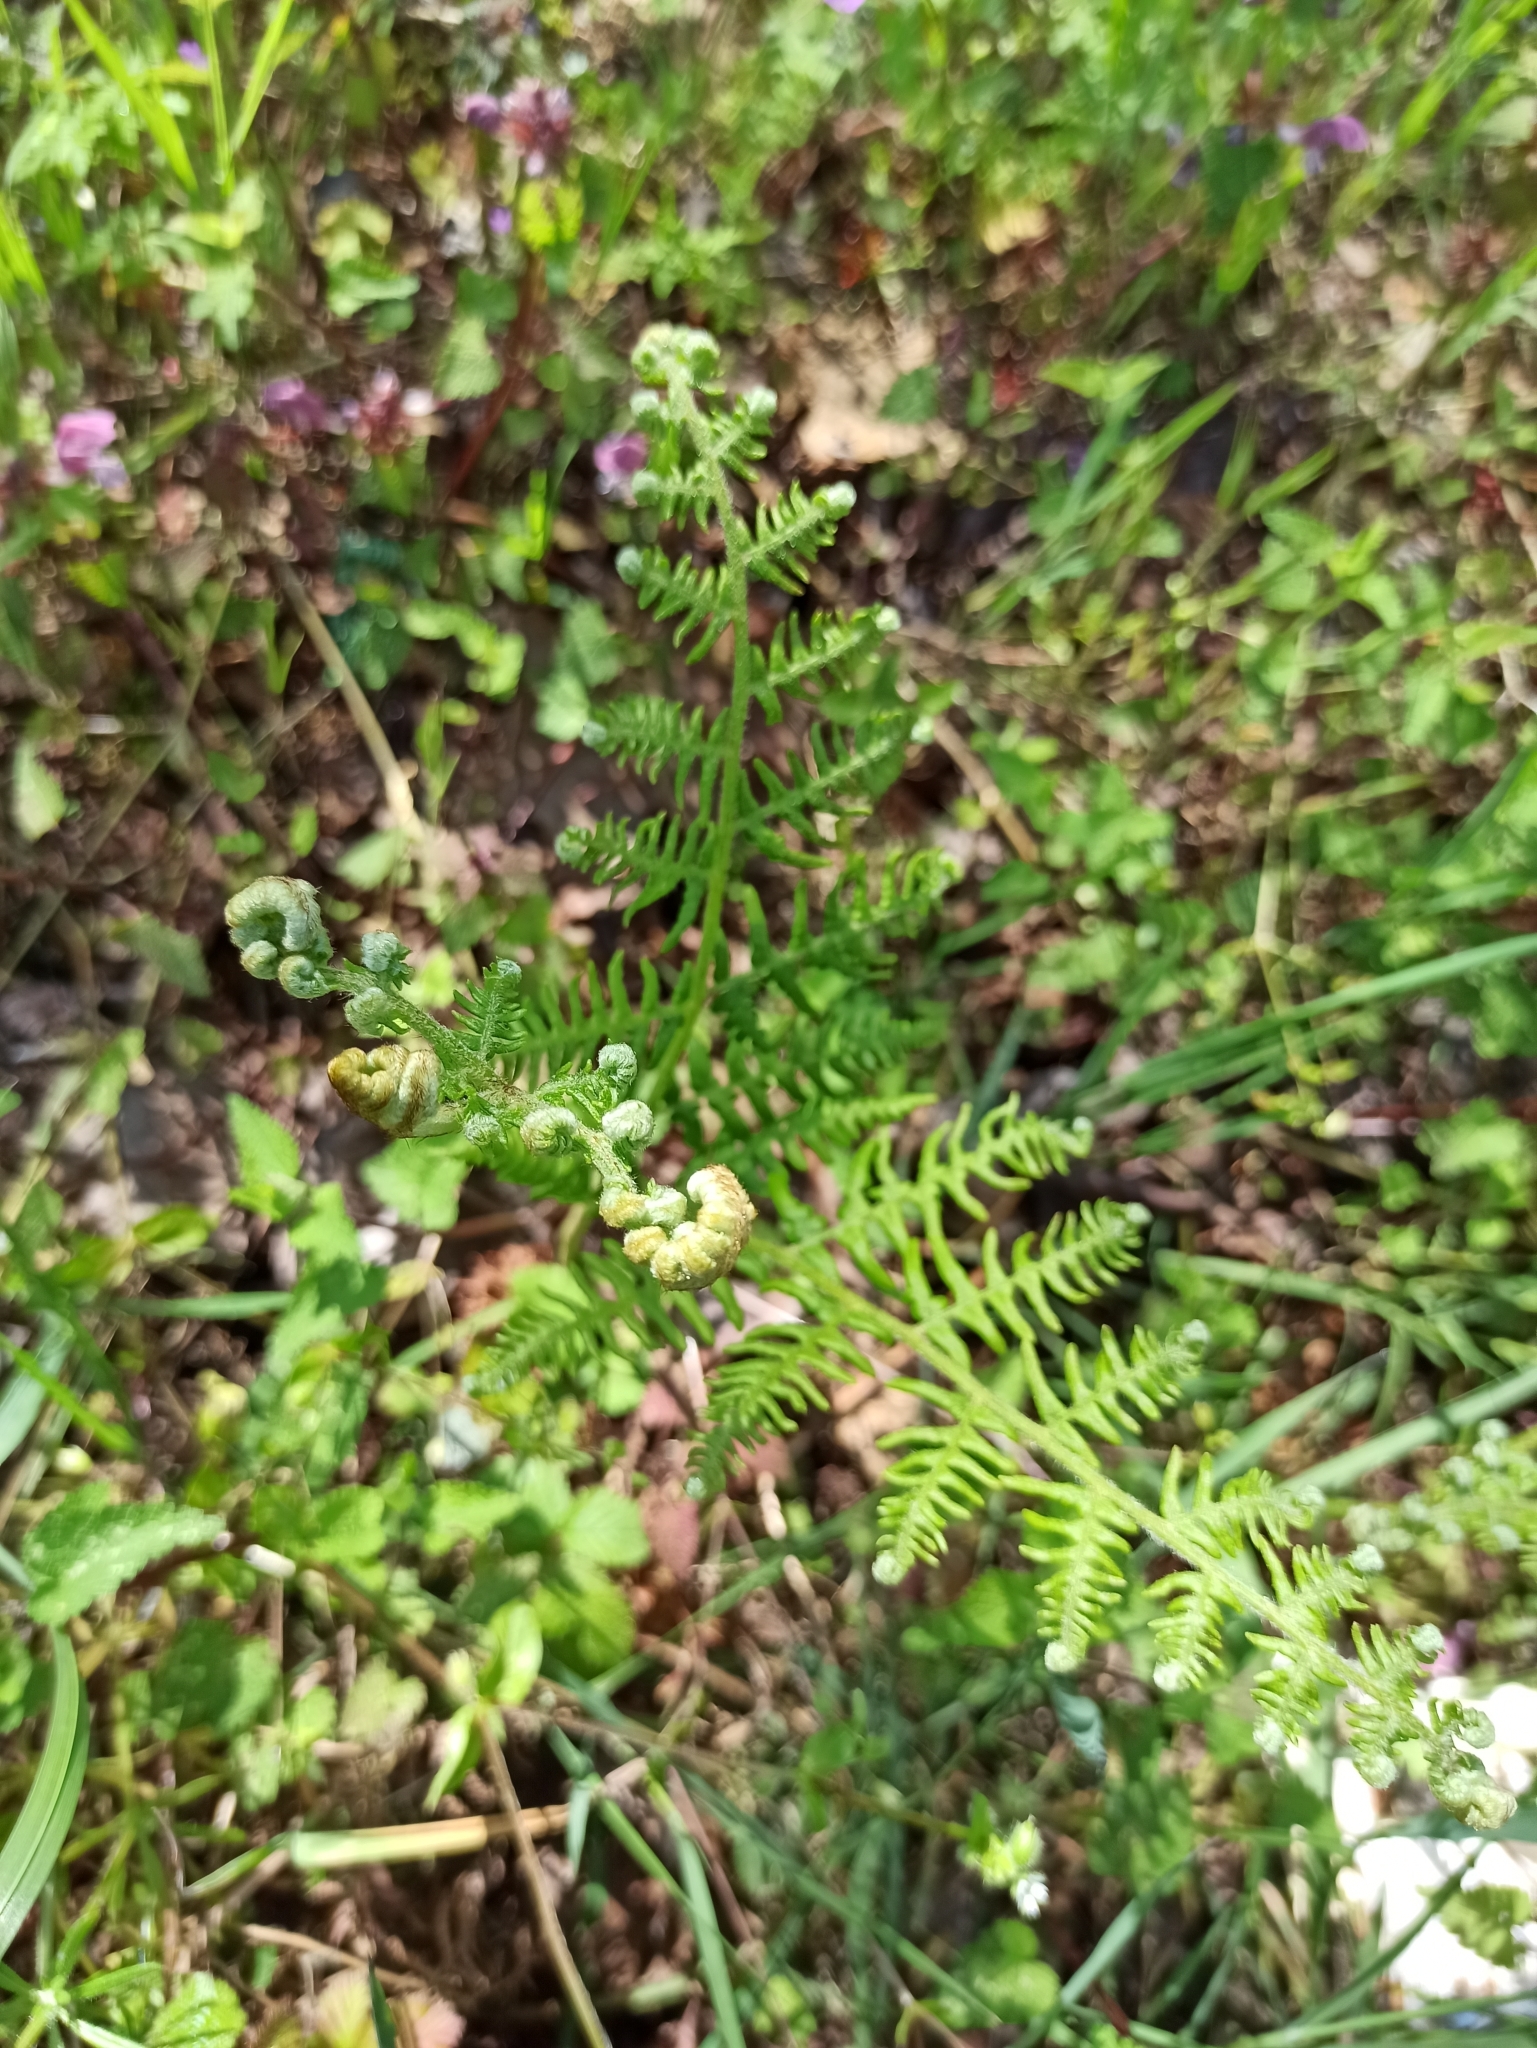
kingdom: Plantae
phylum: Tracheophyta
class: Polypodiopsida
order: Polypodiales
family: Dennstaedtiaceae
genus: Pteridium
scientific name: Pteridium aquilinum
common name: Bracken
